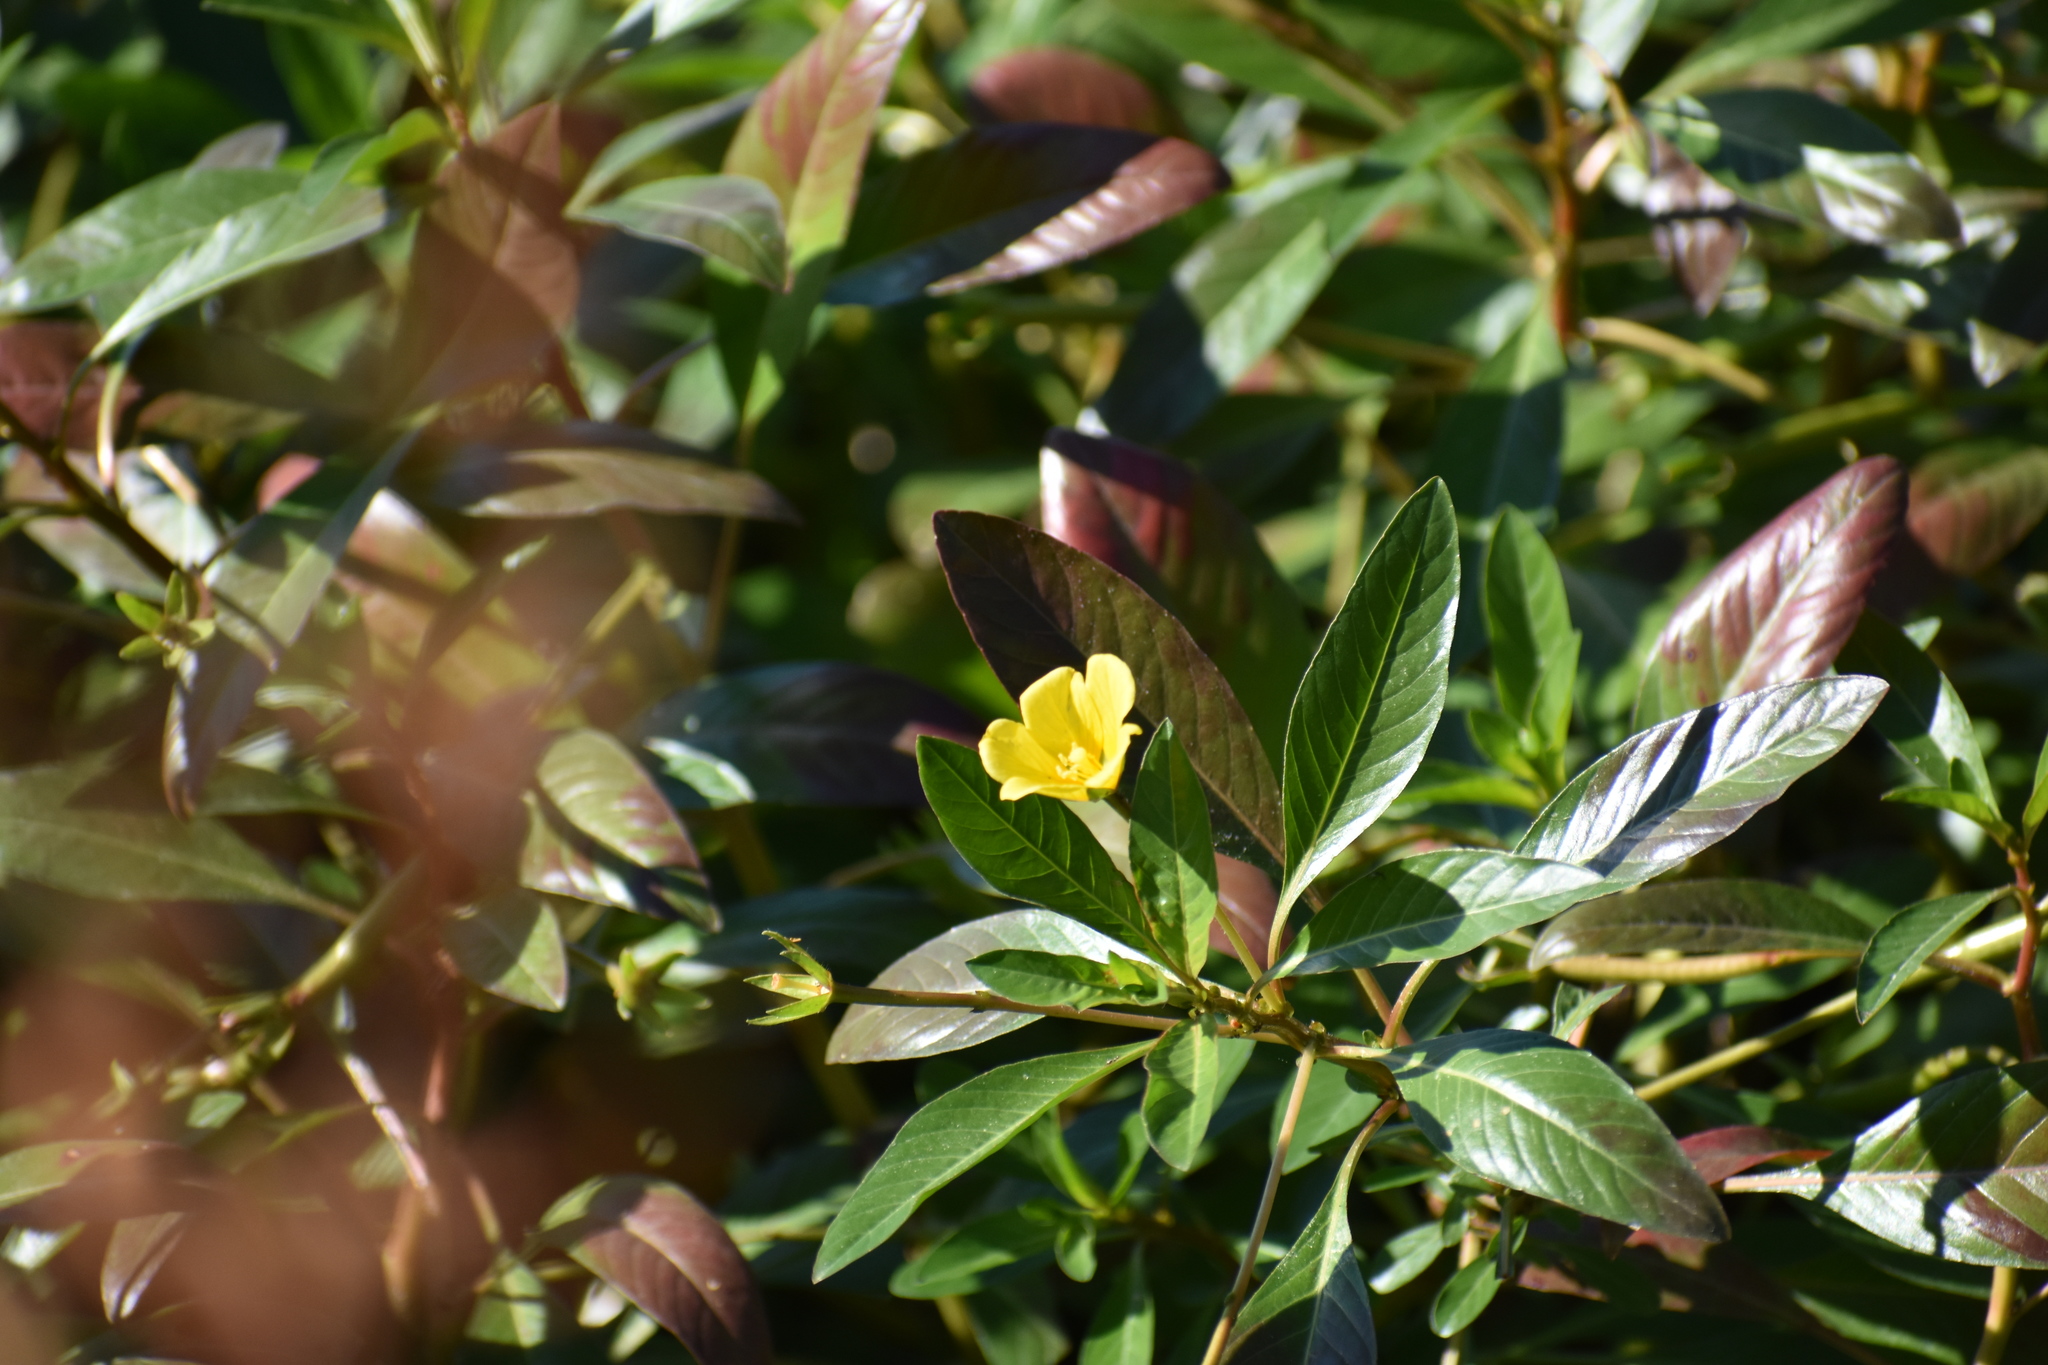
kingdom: Plantae
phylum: Tracheophyta
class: Magnoliopsida
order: Myrtales
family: Onagraceae
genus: Ludwigia
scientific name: Ludwigia peploides
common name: Floating primrose-willow
